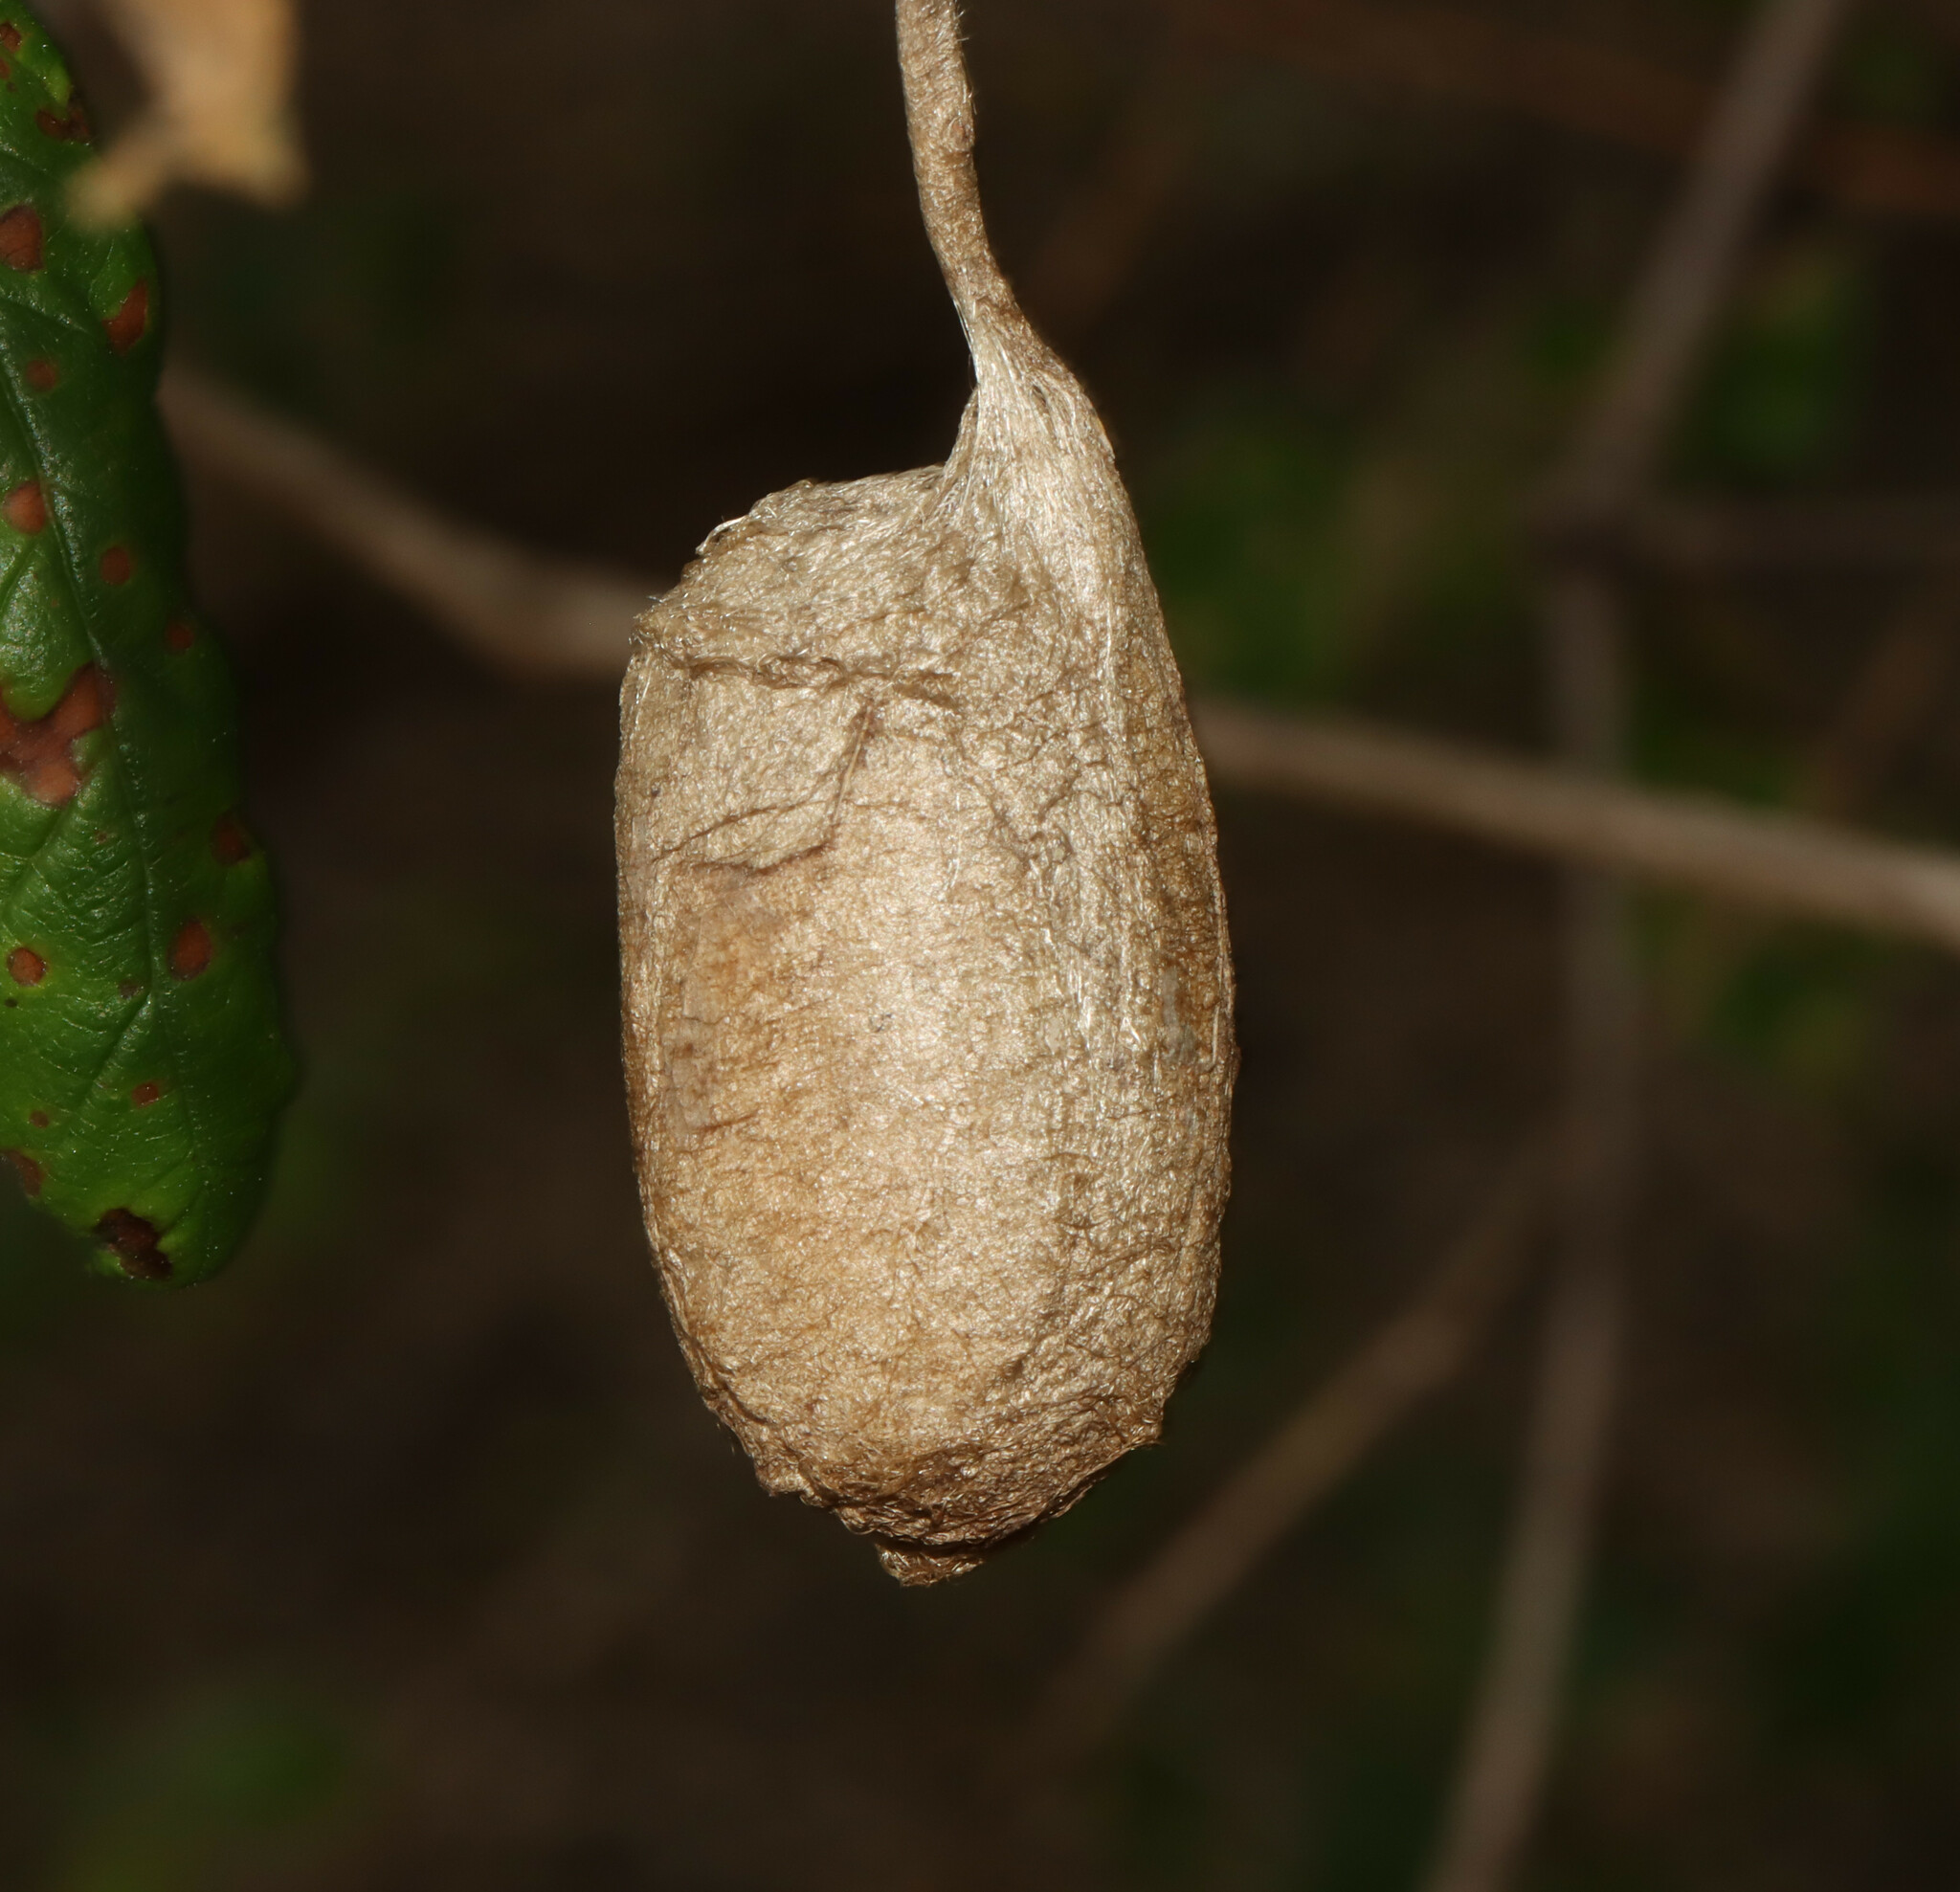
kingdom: Animalia
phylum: Arthropoda
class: Insecta
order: Lepidoptera
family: Saturniidae
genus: Antheraea
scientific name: Antheraea polyphemus
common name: Polyphemus moth
